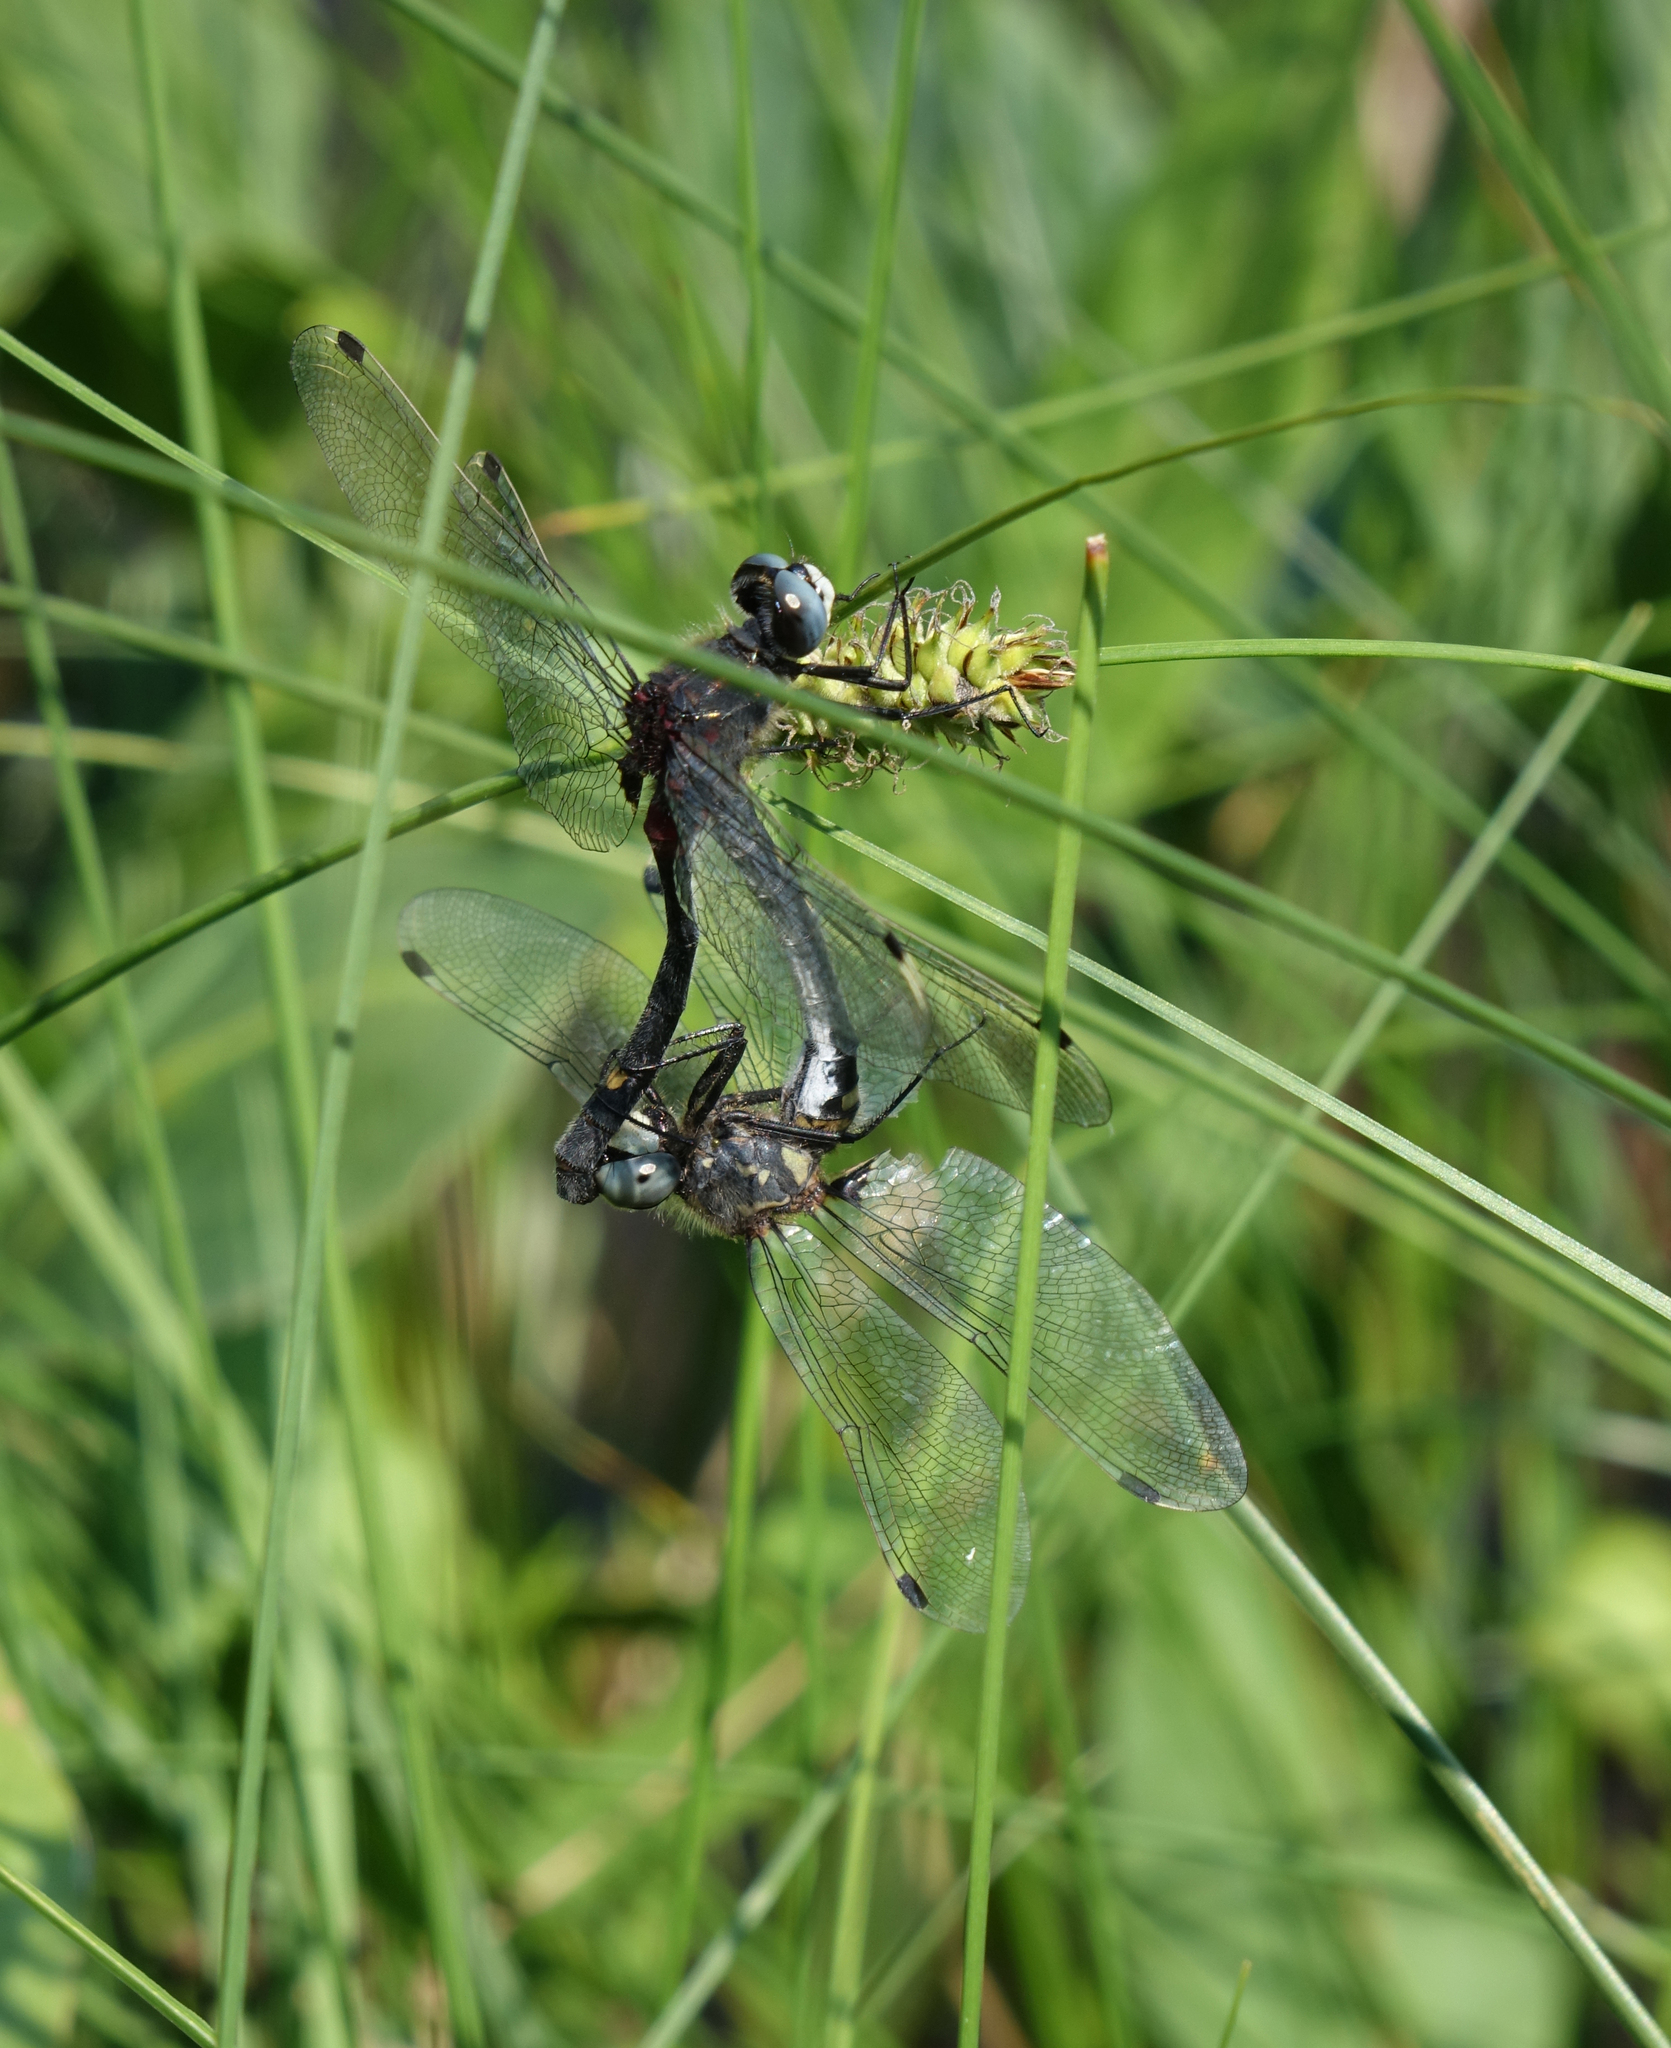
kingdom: Animalia
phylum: Arthropoda
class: Insecta
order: Odonata
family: Libellulidae
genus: Leucorrhinia
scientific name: Leucorrhinia orientalis
